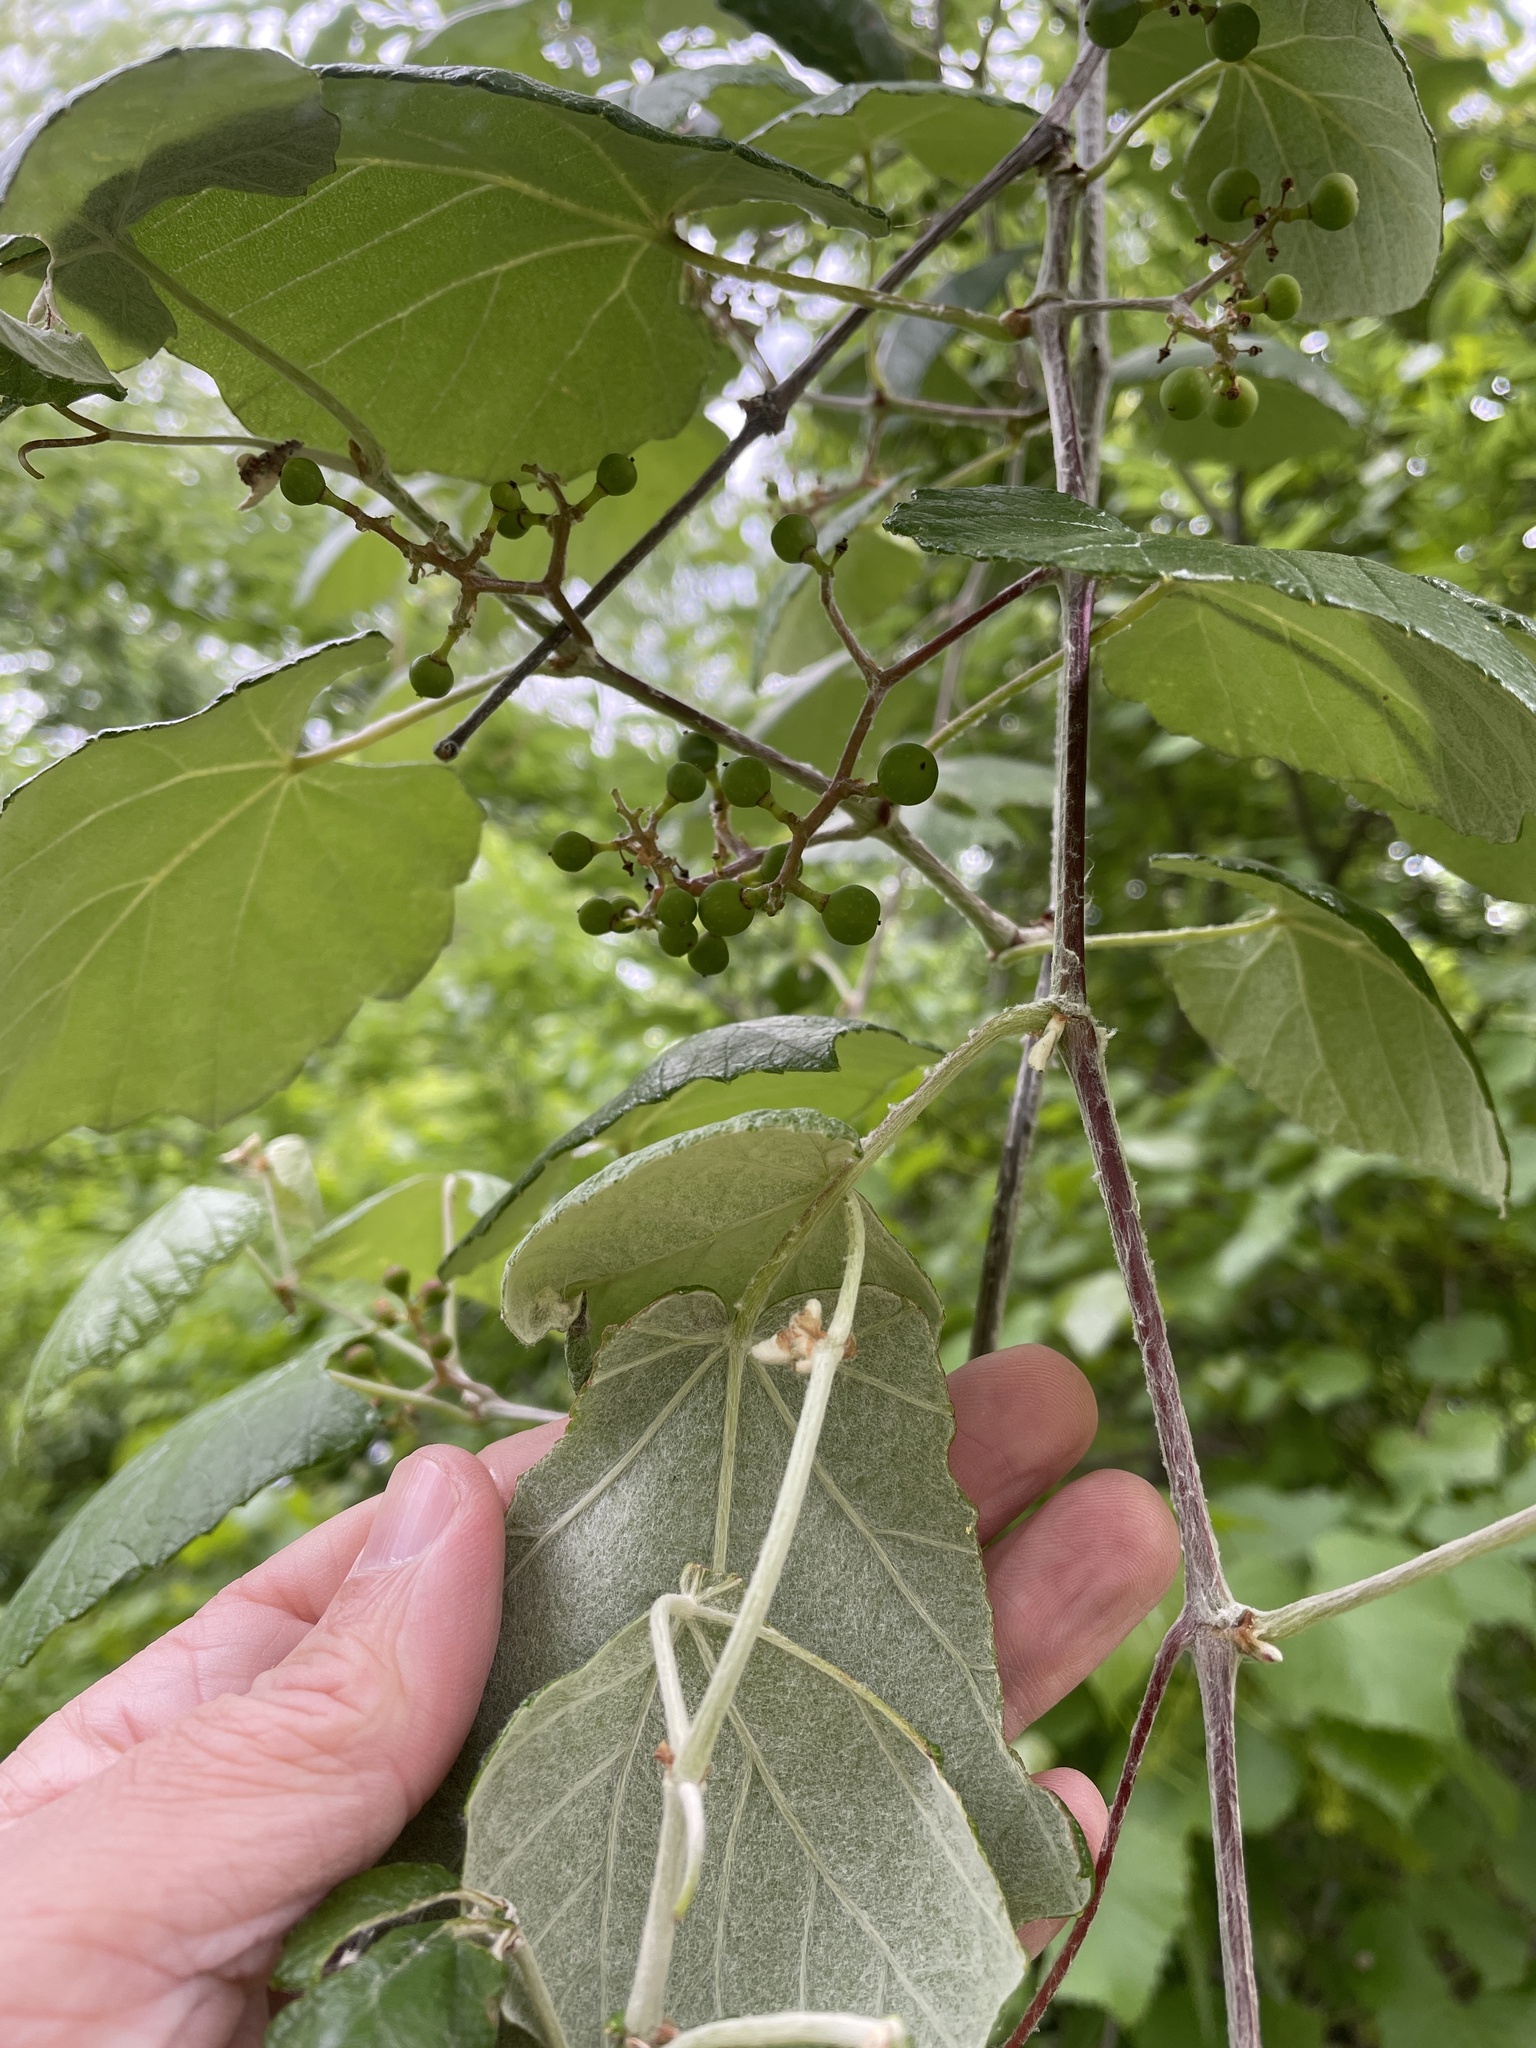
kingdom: Plantae
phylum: Tracheophyta
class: Magnoliopsida
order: Vitales
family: Vitaceae
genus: Vitis
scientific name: Vitis mustangensis
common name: Mustang grape
